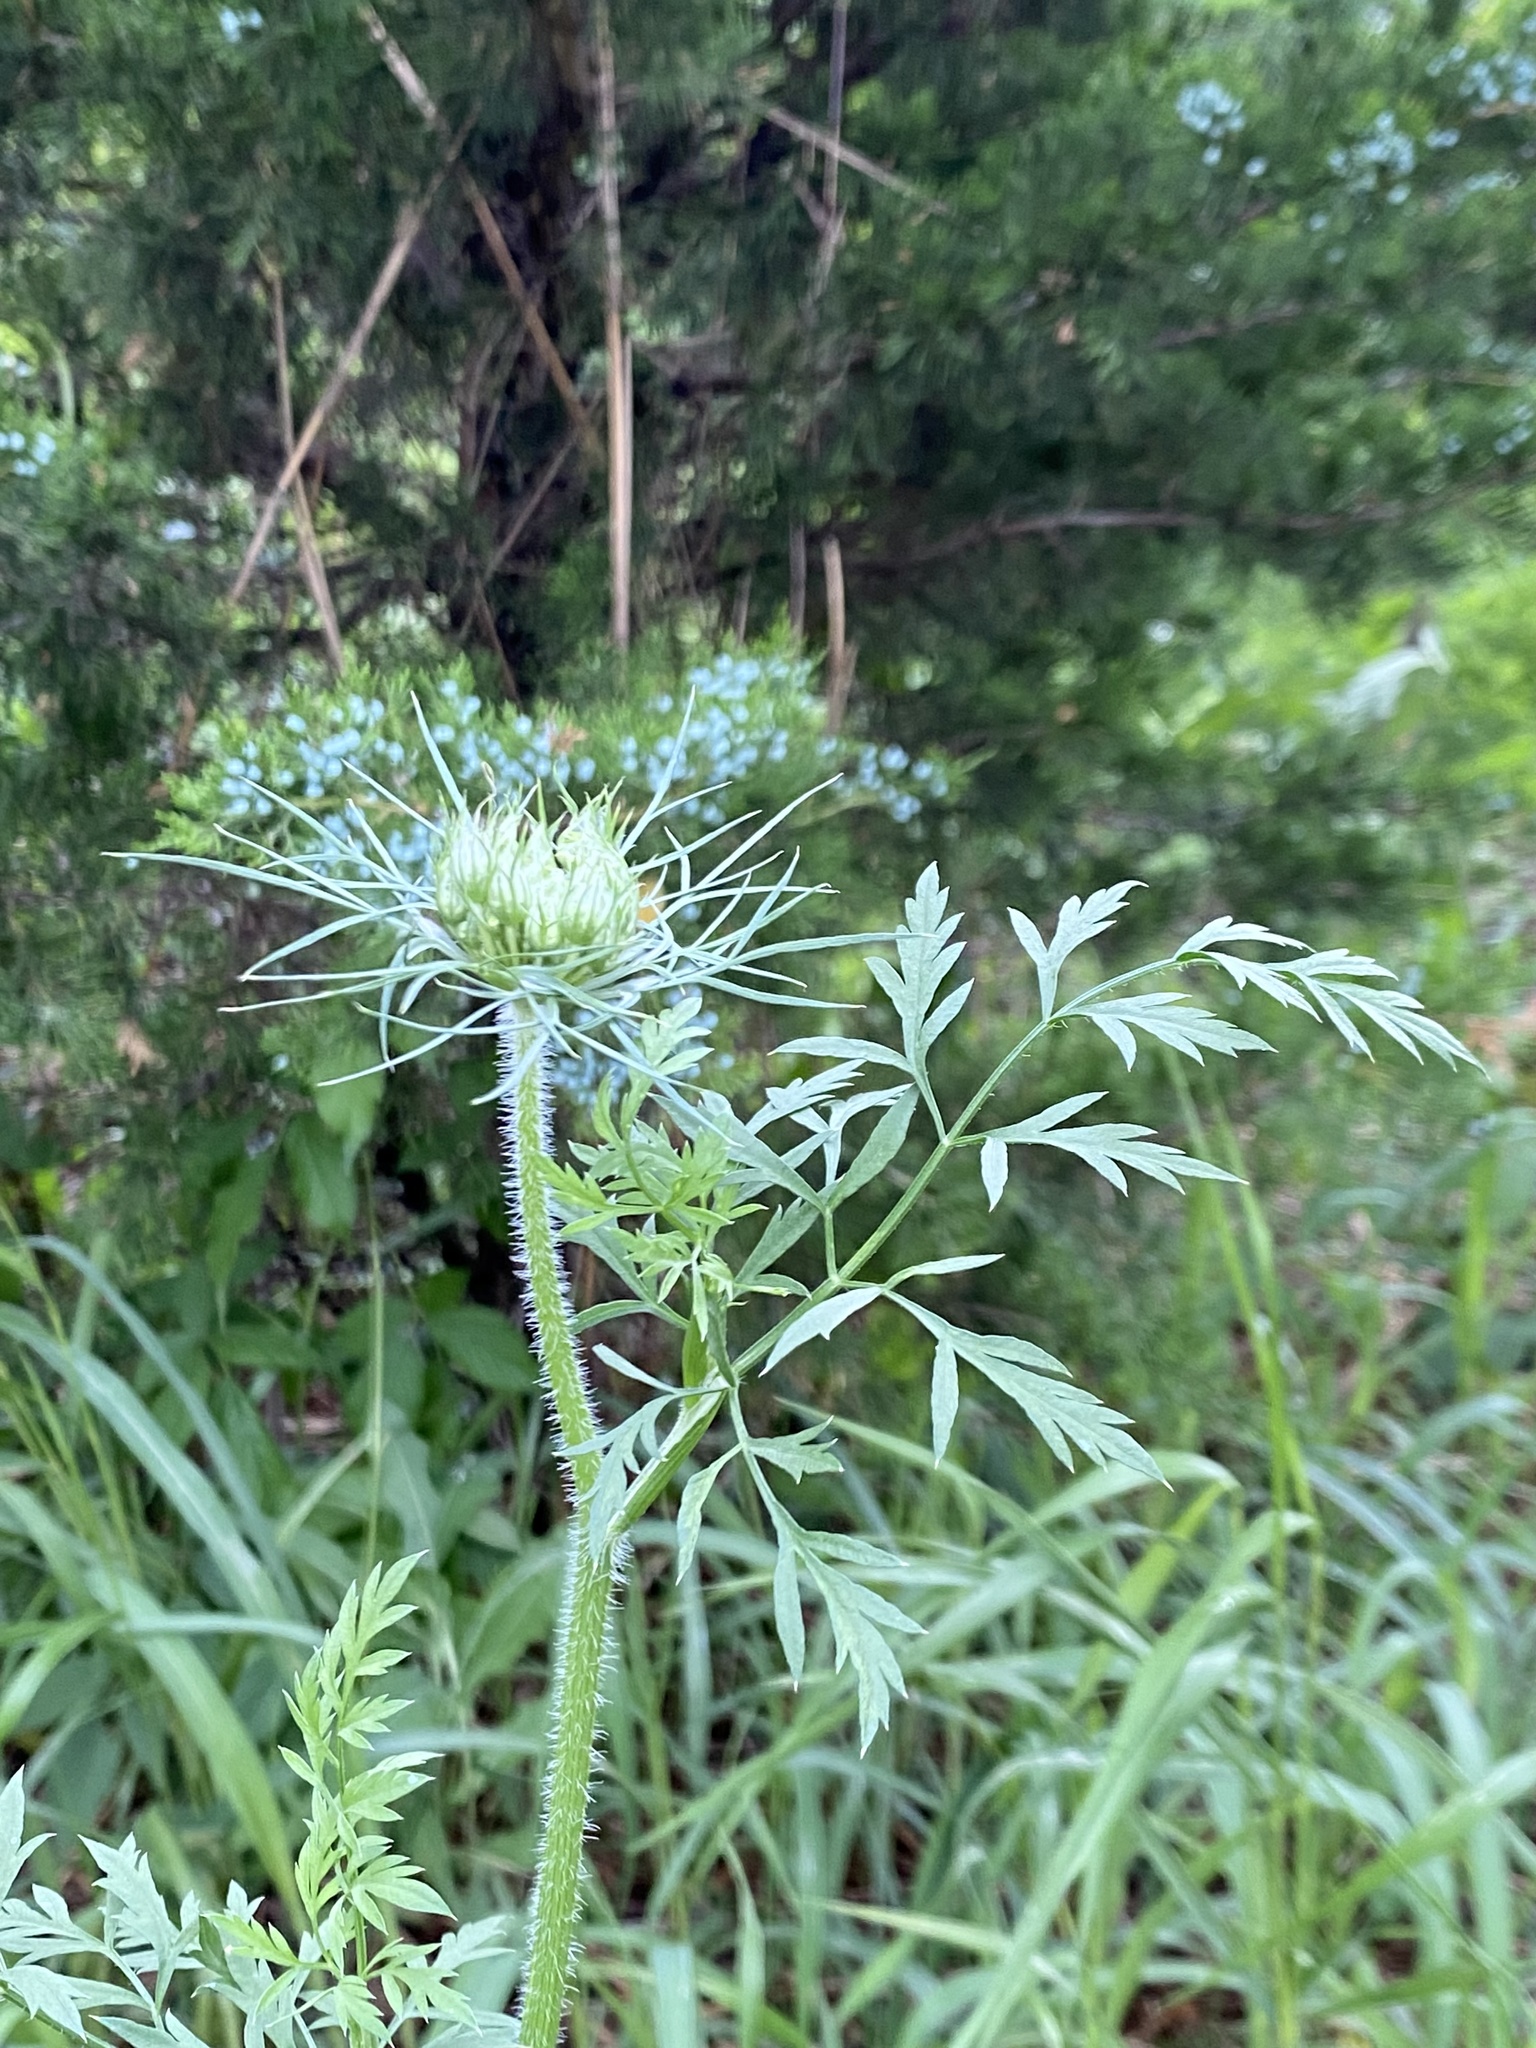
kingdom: Plantae
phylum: Tracheophyta
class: Magnoliopsida
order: Apiales
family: Apiaceae
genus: Daucus
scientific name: Daucus carota
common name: Wild carrot
